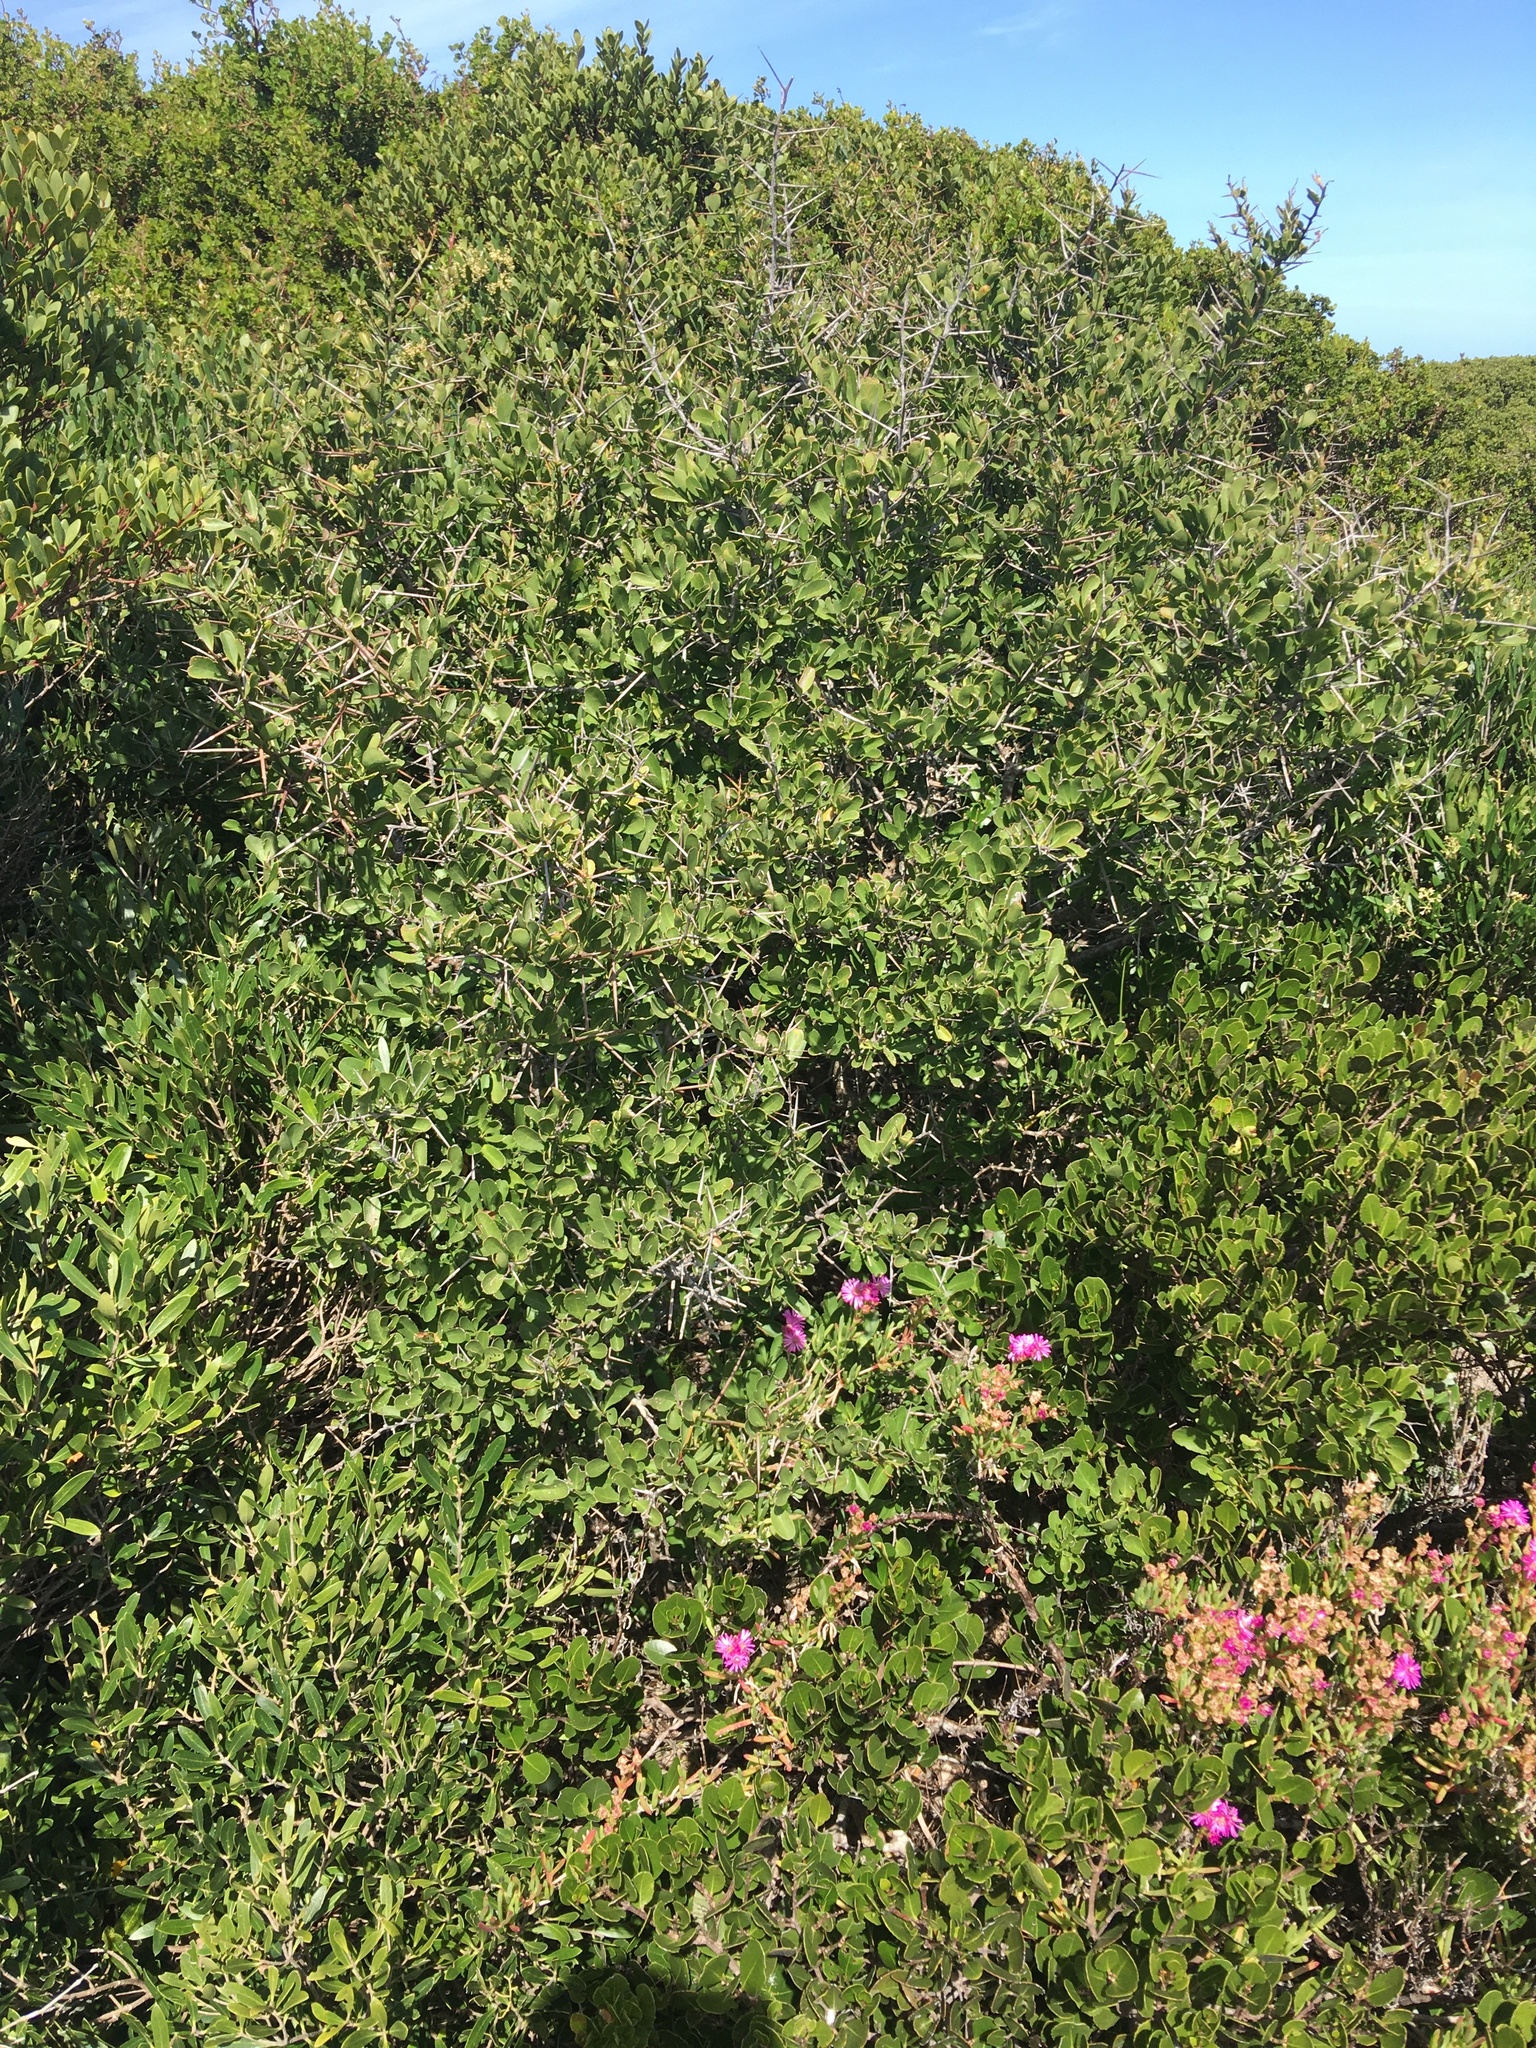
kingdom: Plantae
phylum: Tracheophyta
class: Magnoliopsida
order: Celastrales
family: Celastraceae
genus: Gymnosporia
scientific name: Gymnosporia buxifolia
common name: Common spike-thorn
